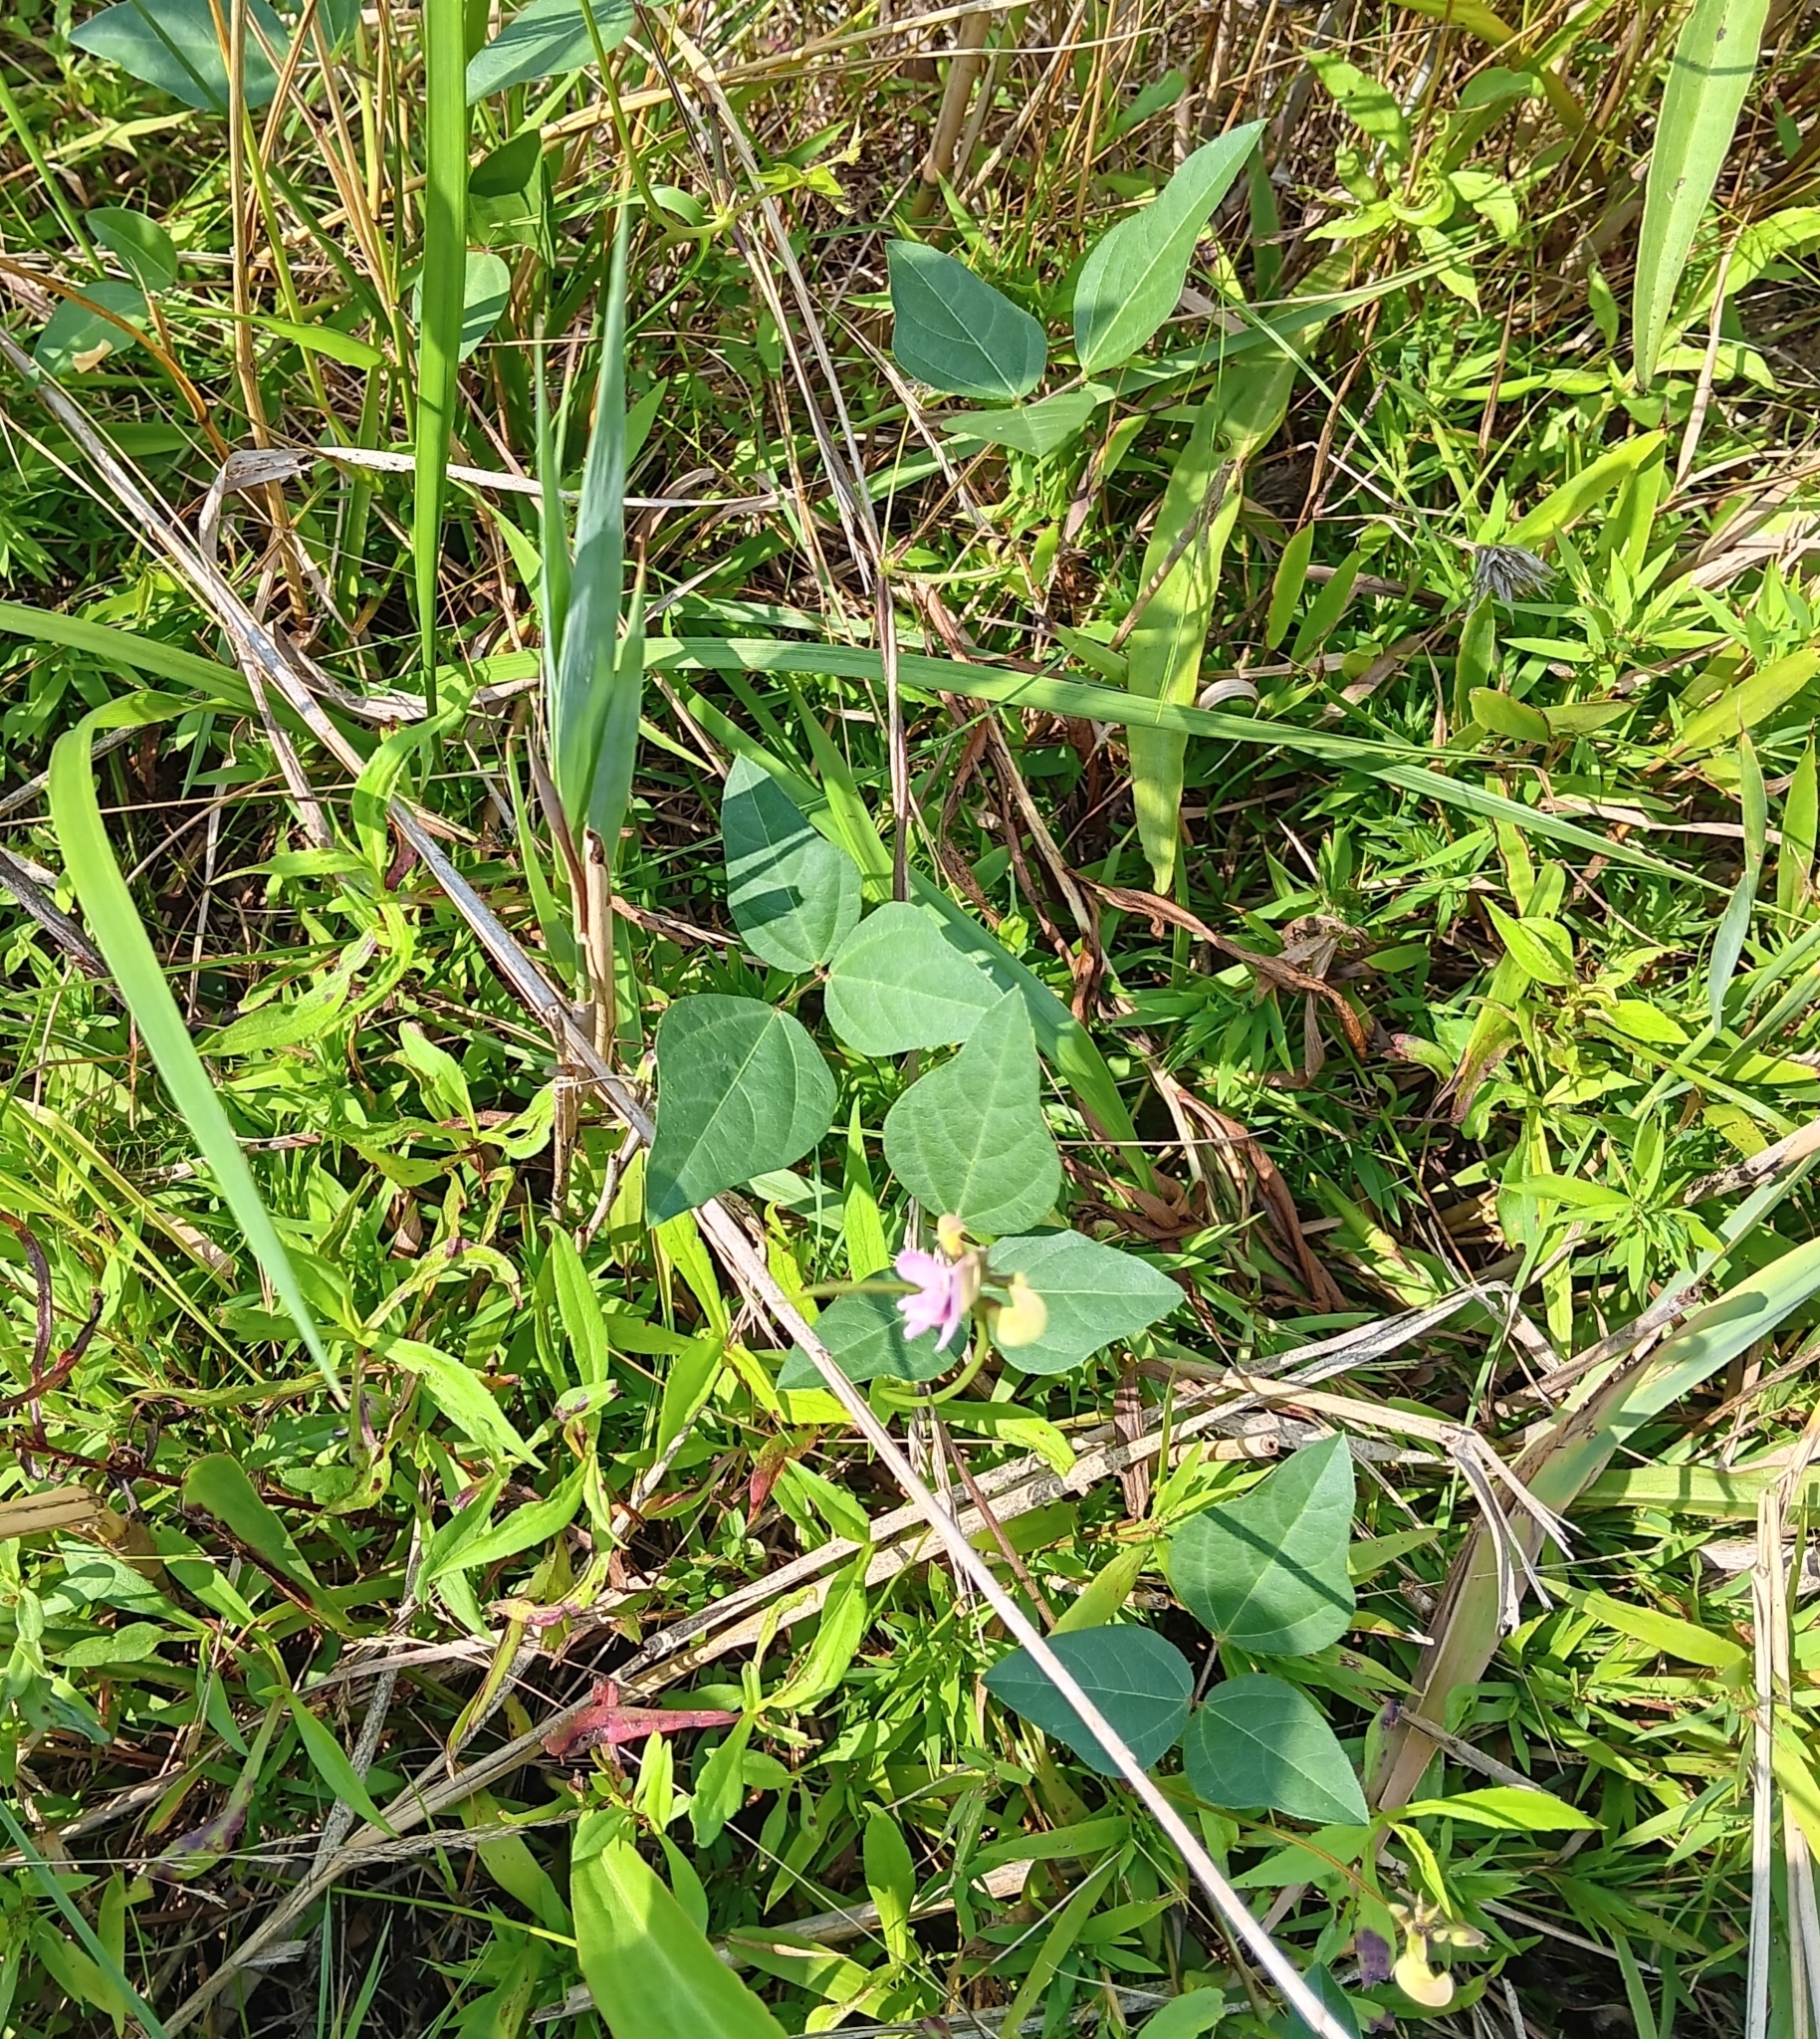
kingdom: Plantae
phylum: Tracheophyta
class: Magnoliopsida
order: Fabales
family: Fabaceae
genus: Strophostyles
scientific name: Strophostyles helvola
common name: Trailing wild bean
